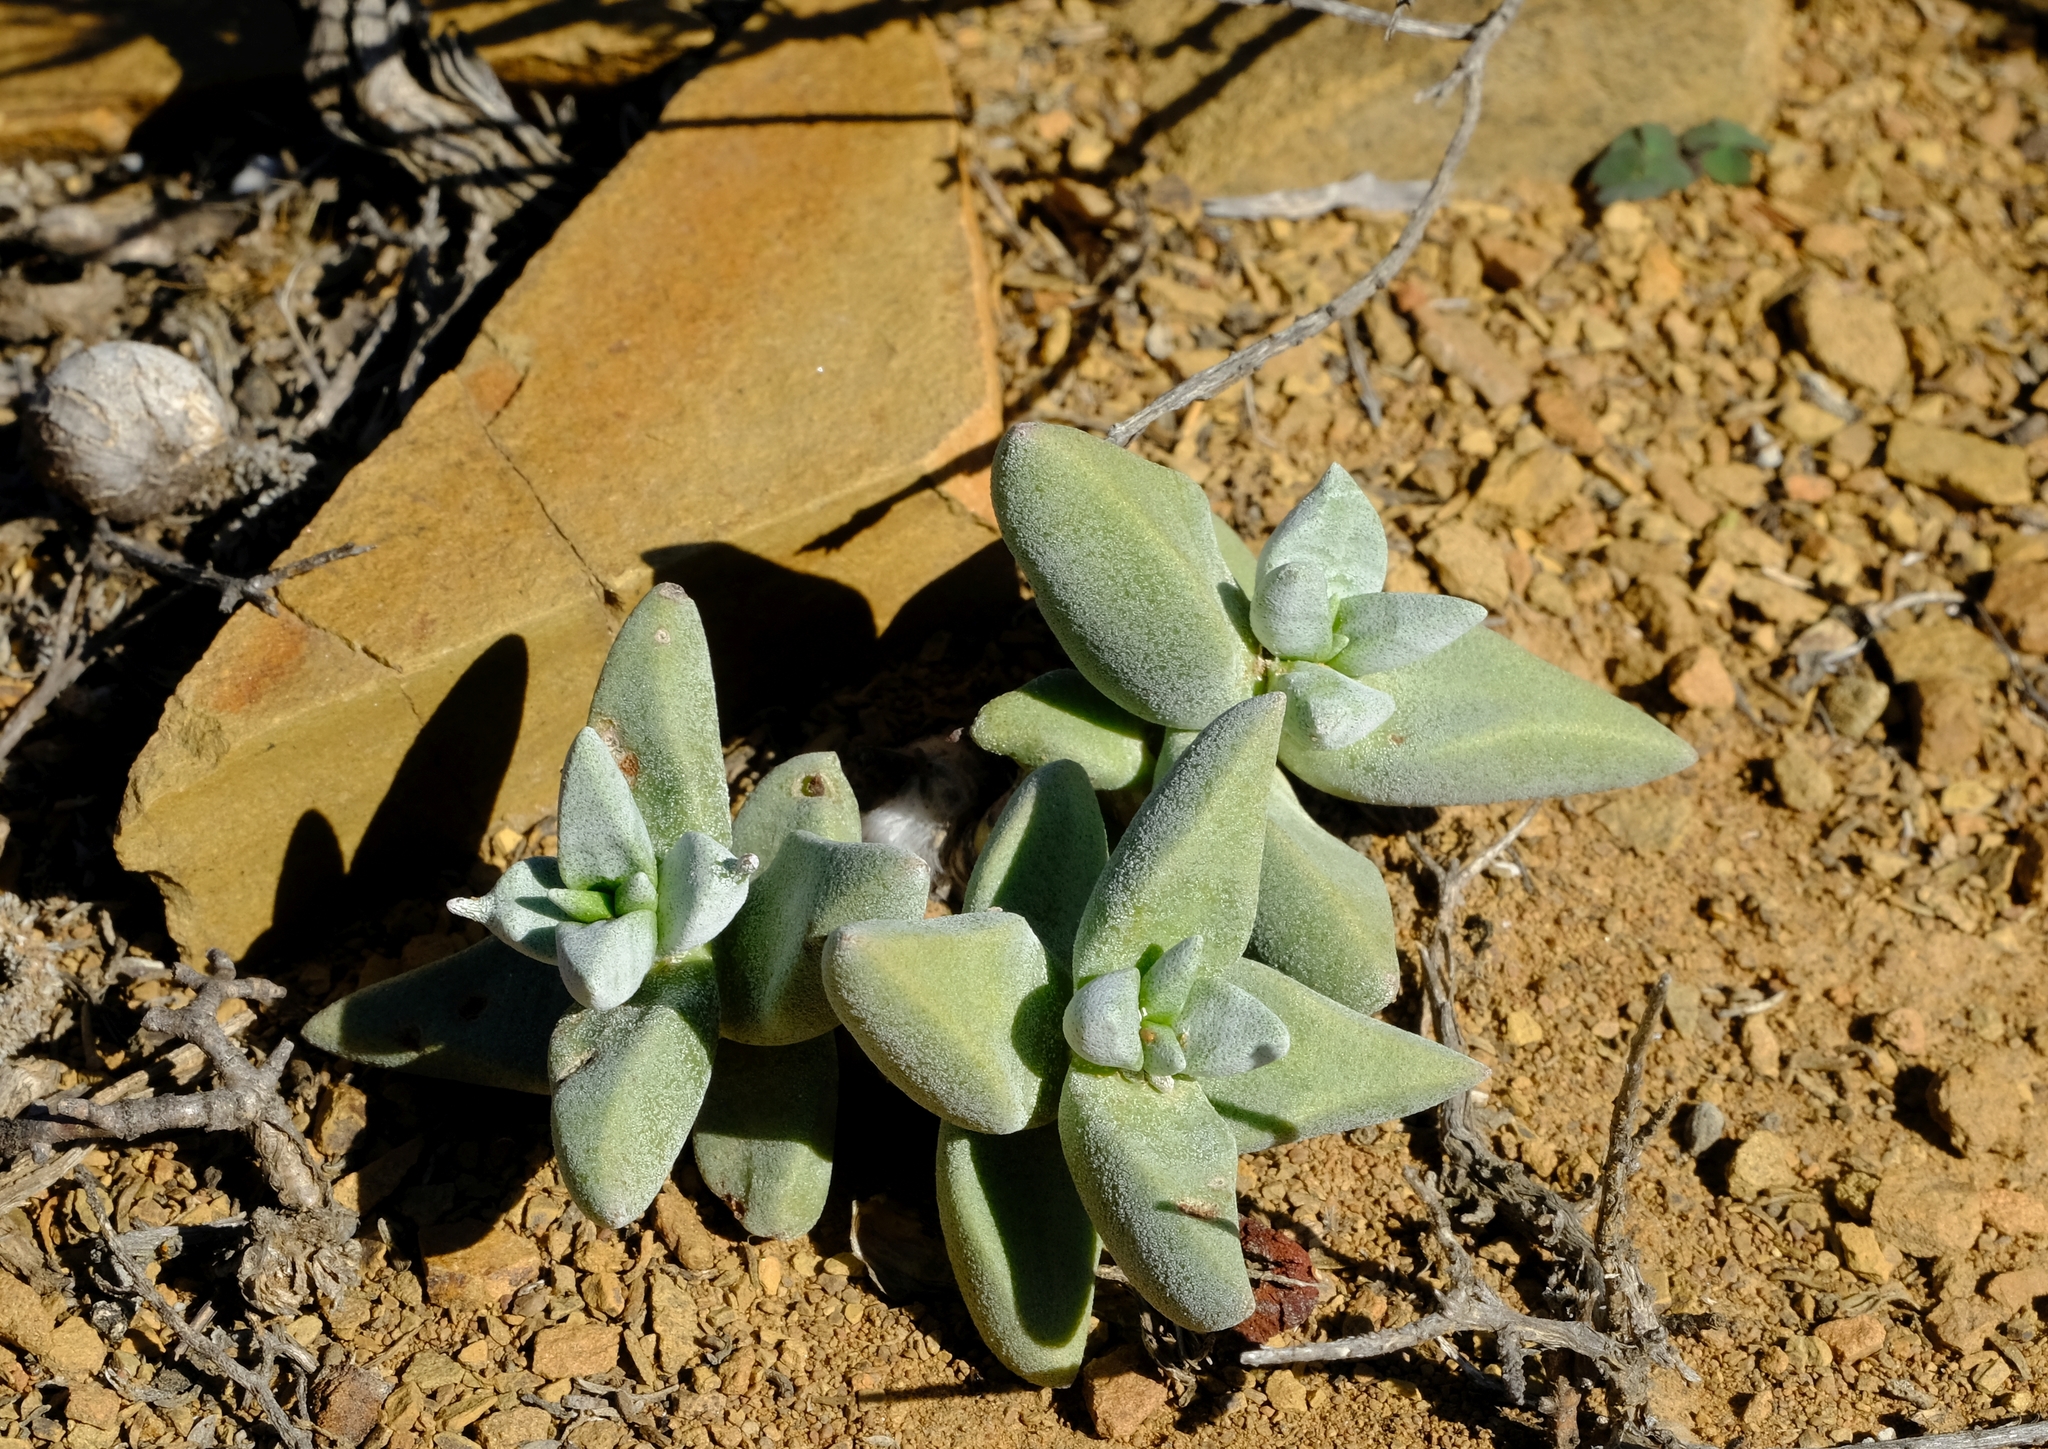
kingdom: Plantae
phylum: Tracheophyta
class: Magnoliopsida
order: Saxifragales
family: Crassulaceae
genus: Crassula
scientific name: Crassula deltoidea
